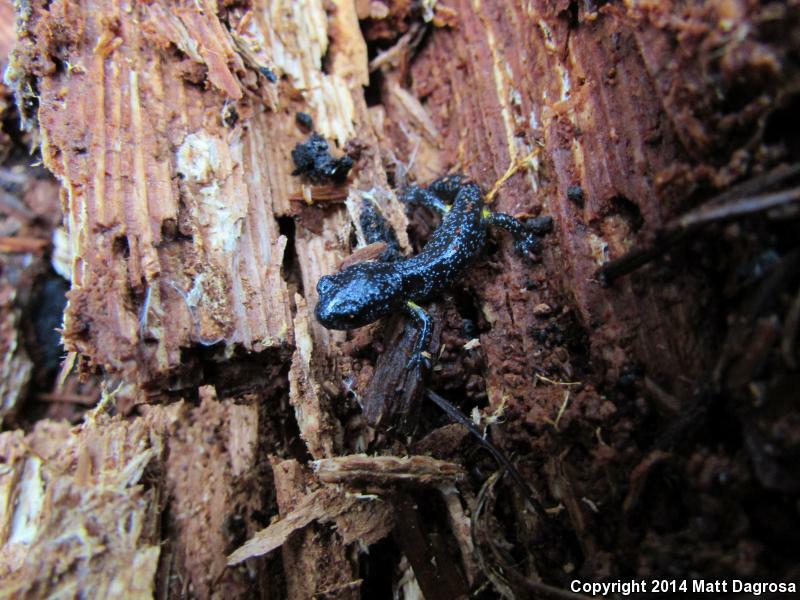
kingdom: Animalia
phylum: Chordata
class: Amphibia
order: Caudata
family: Plethodontidae
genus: Ensatina
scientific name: Ensatina eschscholtzii
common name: Ensatina
